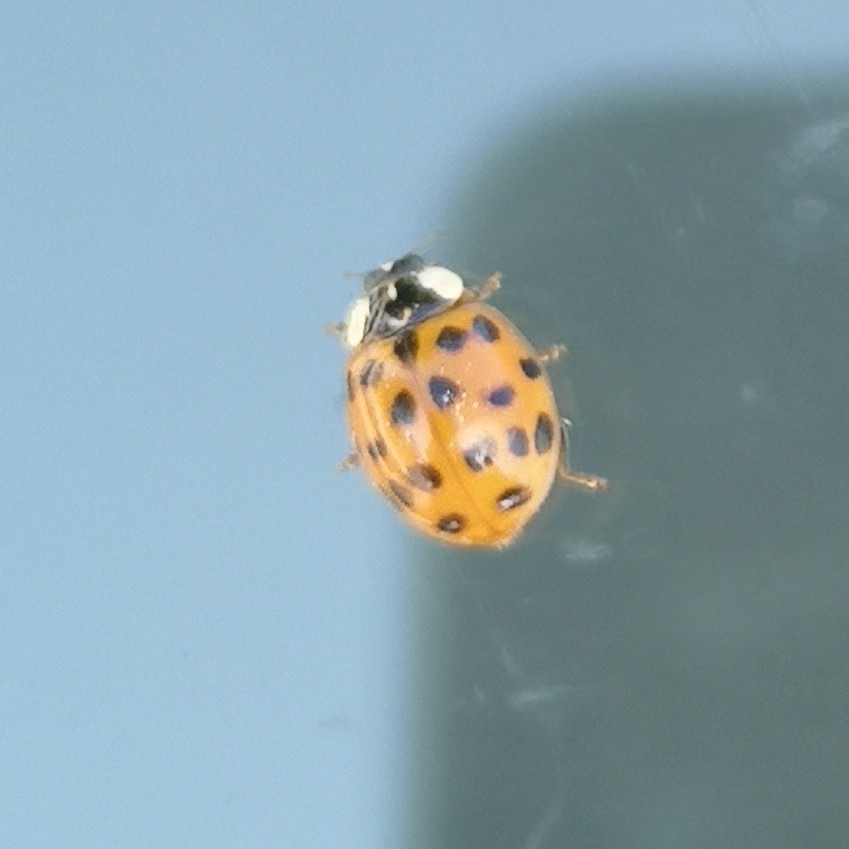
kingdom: Animalia
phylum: Arthropoda
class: Insecta
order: Coleoptera
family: Coccinellidae
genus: Harmonia
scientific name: Harmonia axyridis
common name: Harlequin ladybird
